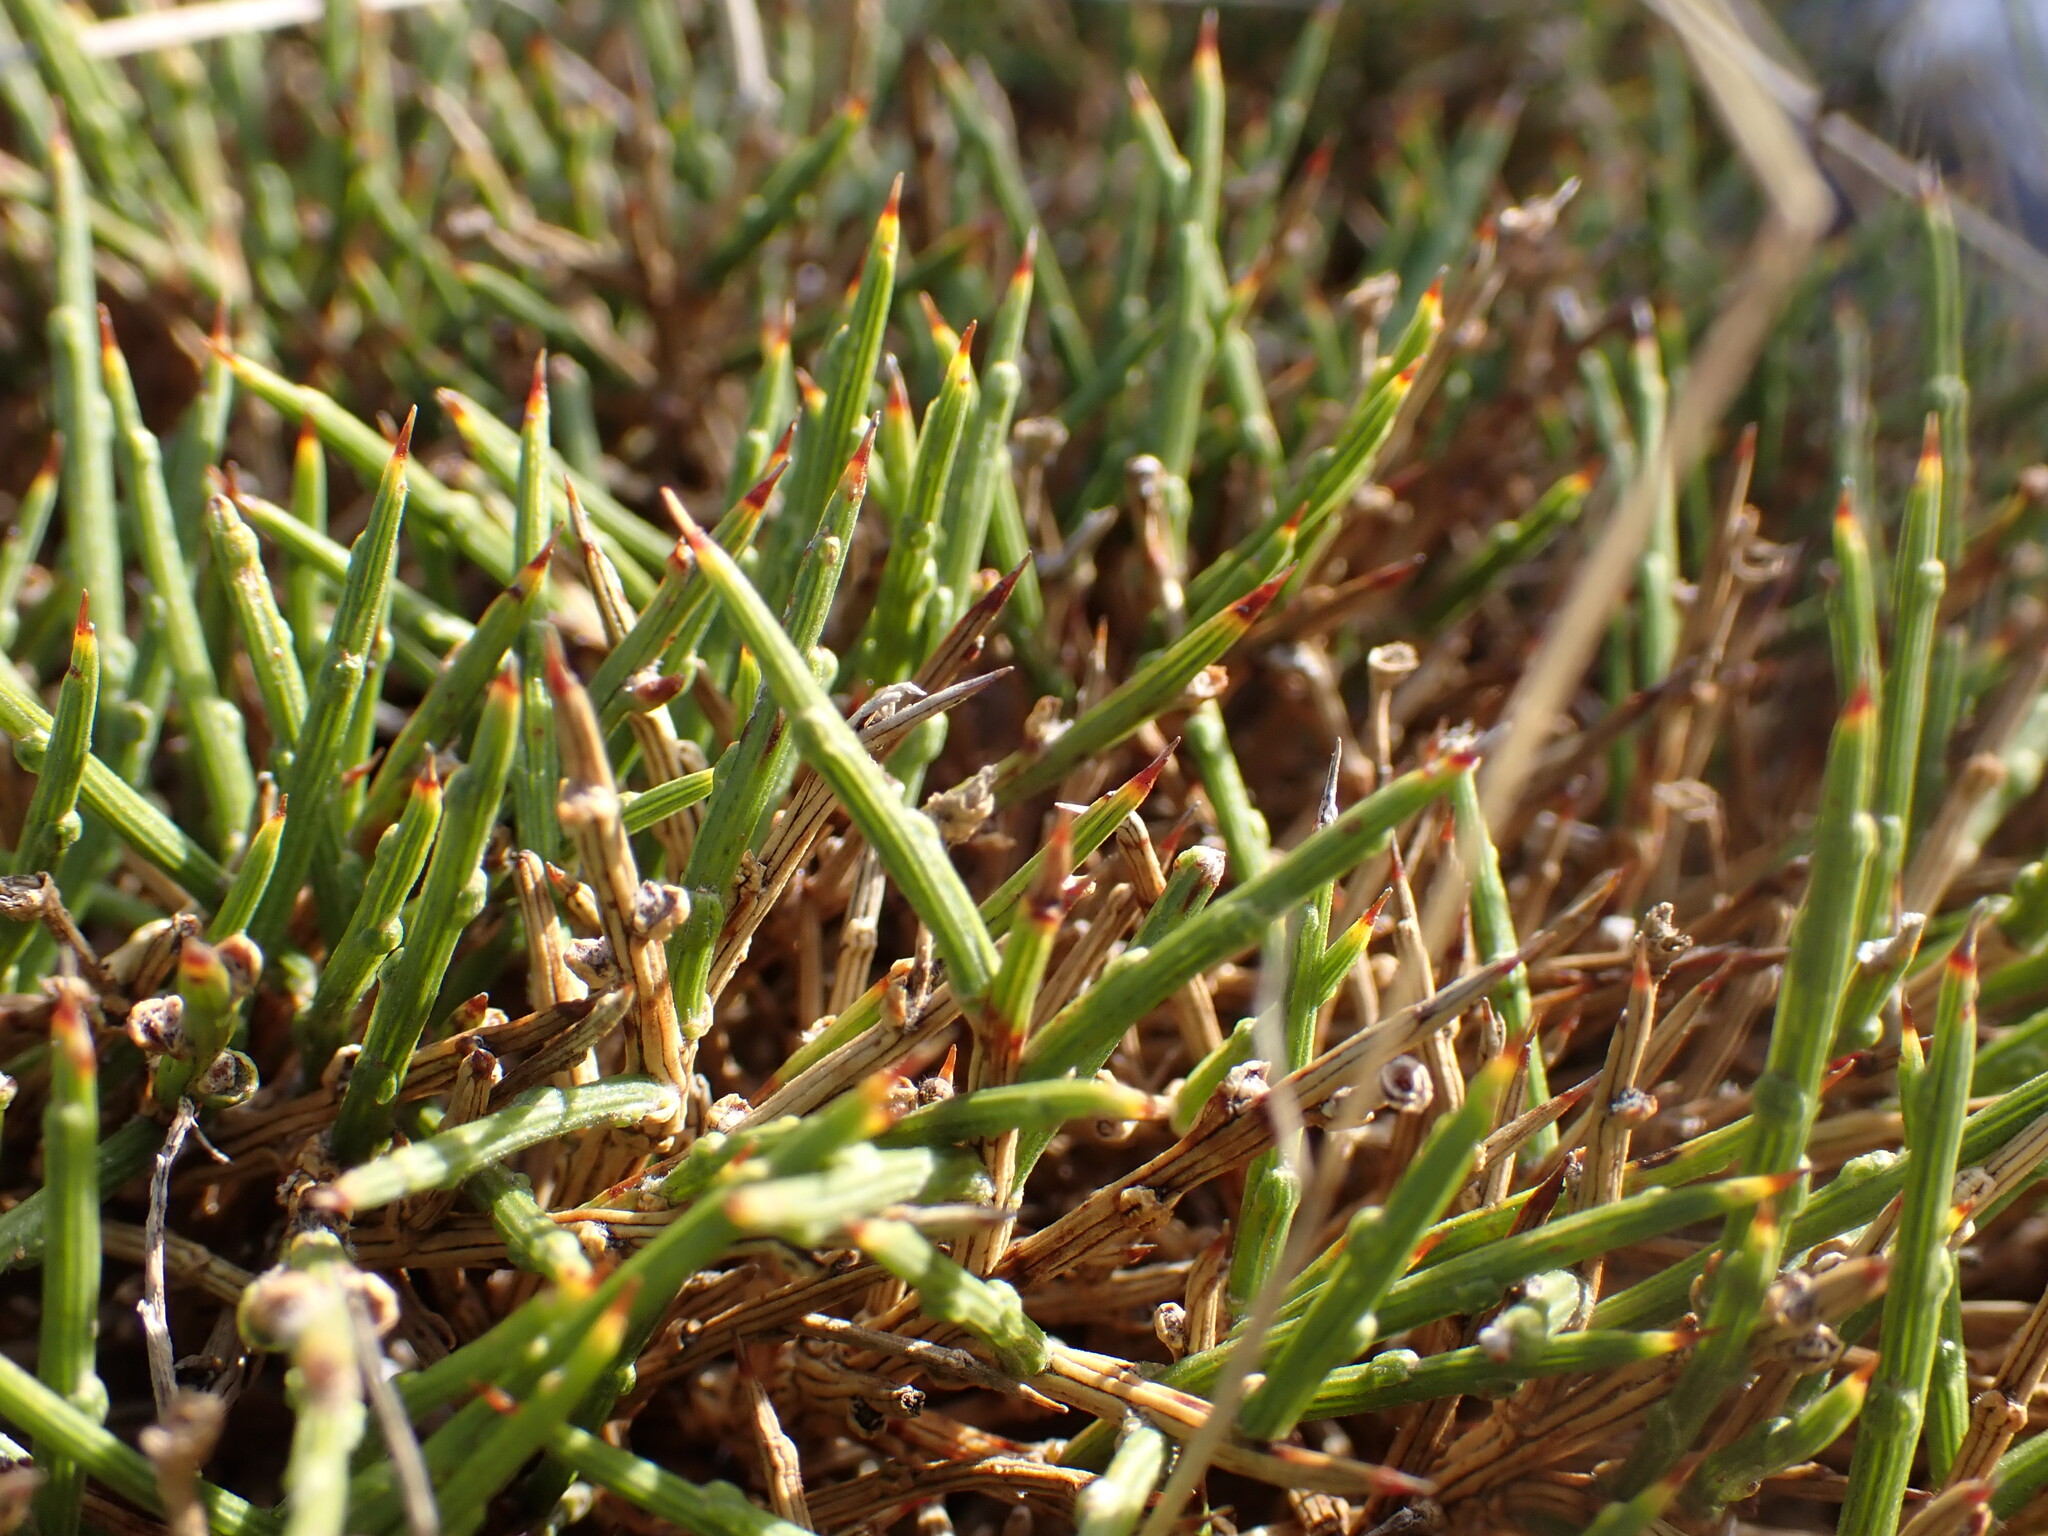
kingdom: Plantae
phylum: Tracheophyta
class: Magnoliopsida
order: Fabales
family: Fabaceae
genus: Genista
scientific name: Genista lobelii
